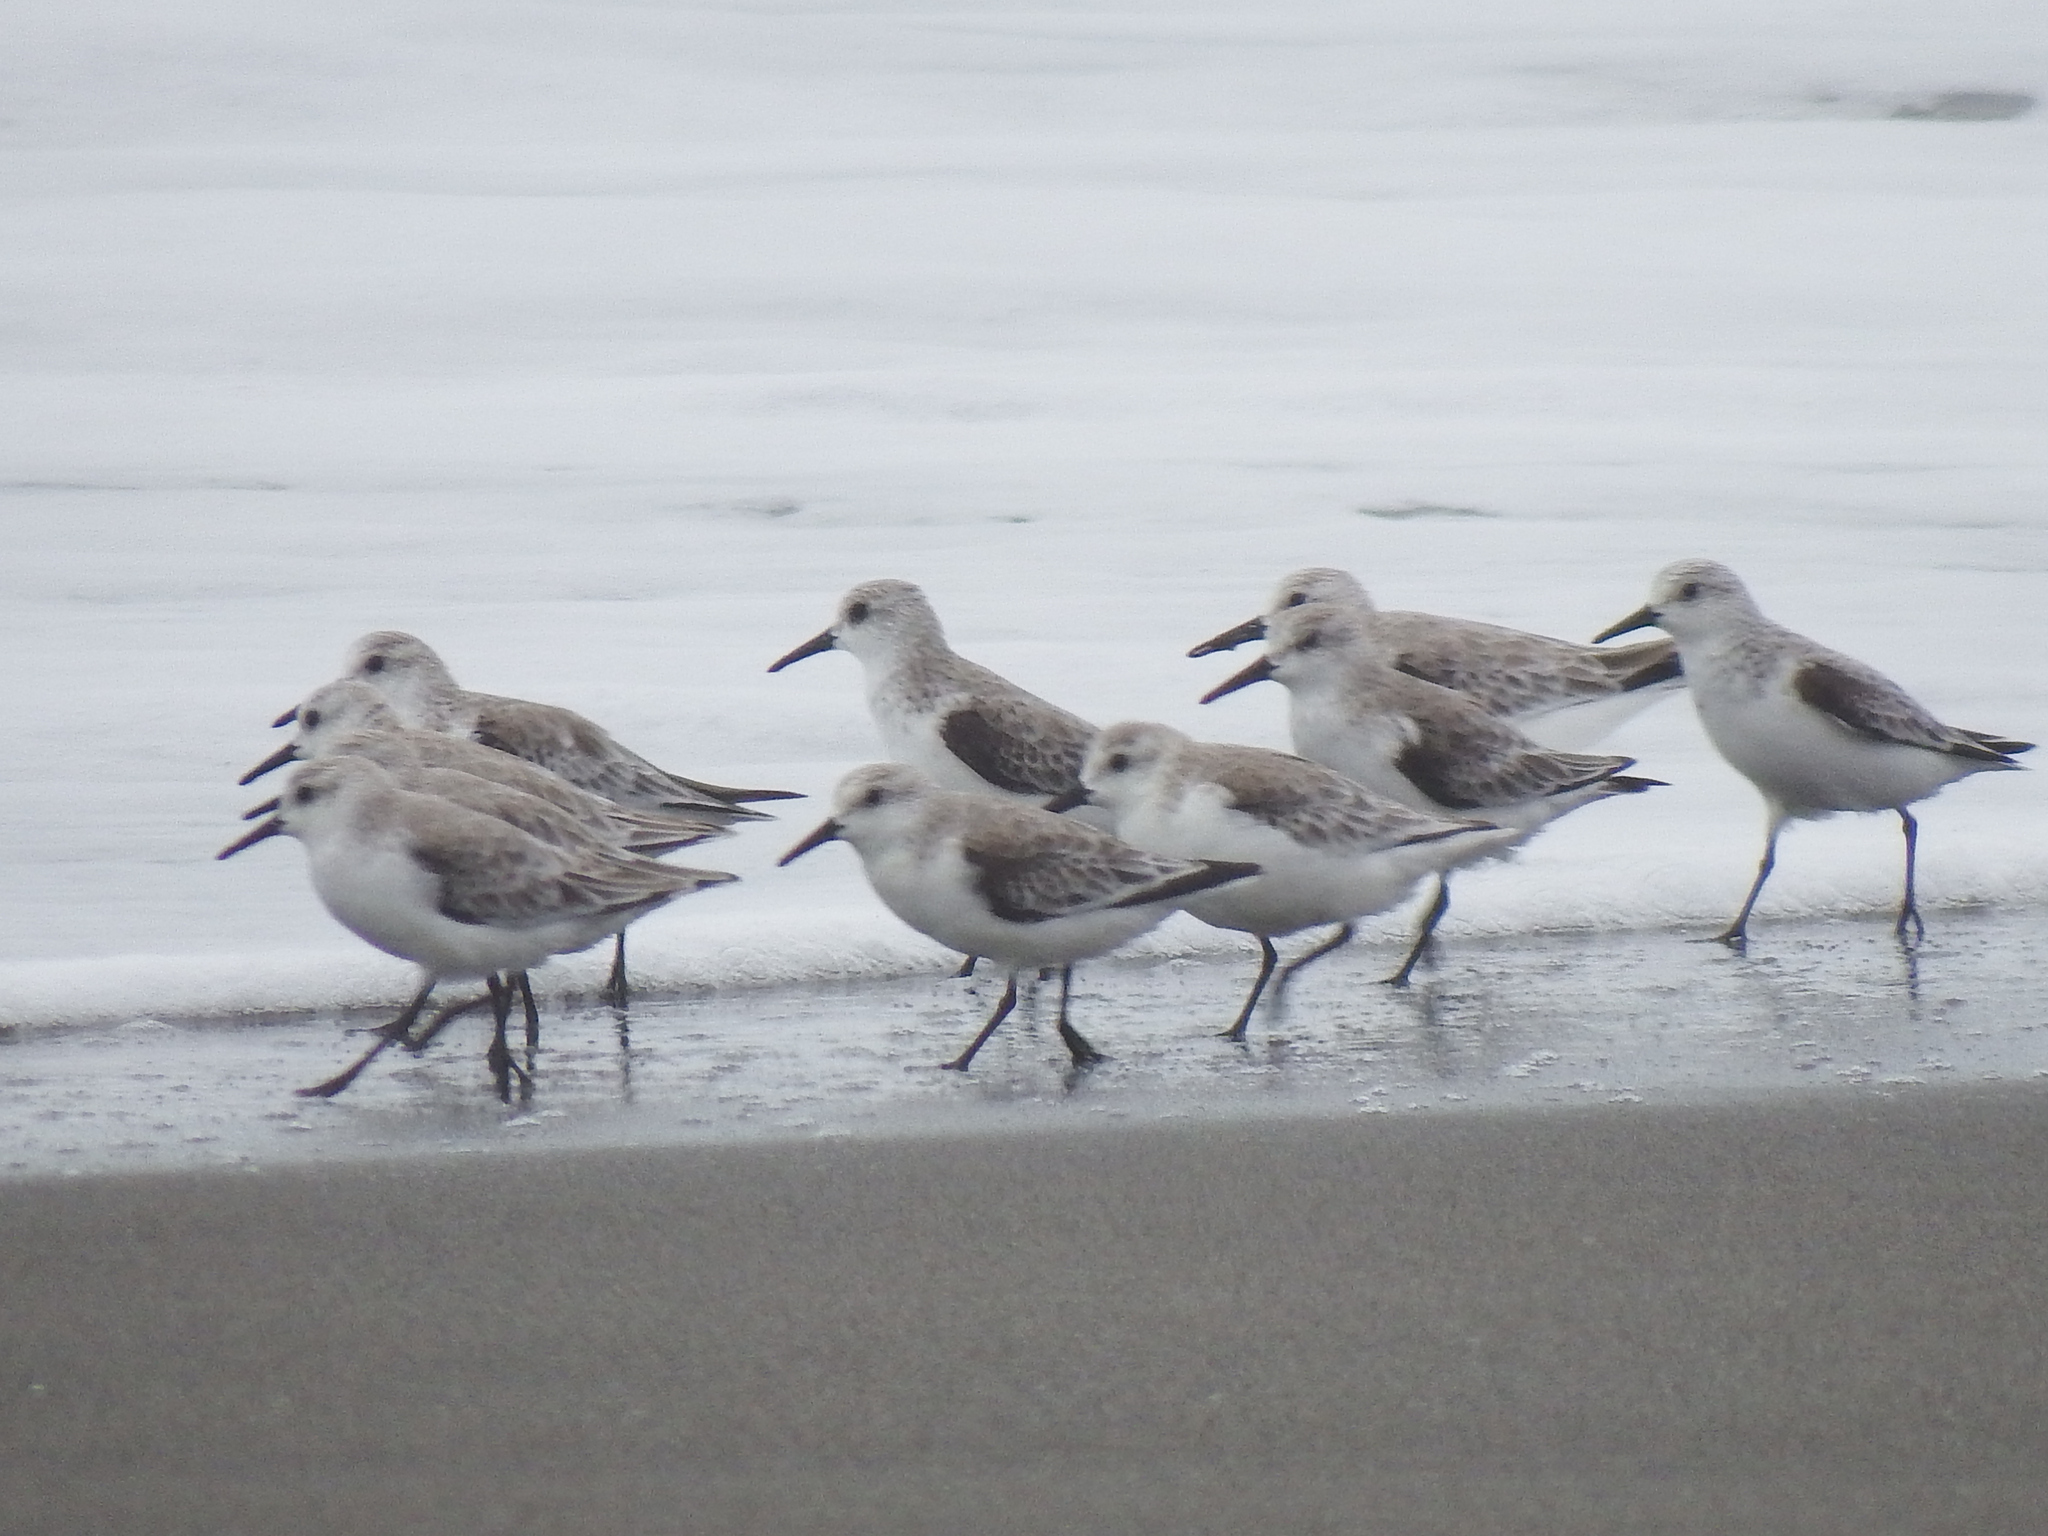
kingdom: Animalia
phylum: Chordata
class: Aves
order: Charadriiformes
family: Scolopacidae
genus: Calidris
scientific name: Calidris alba
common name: Sanderling
